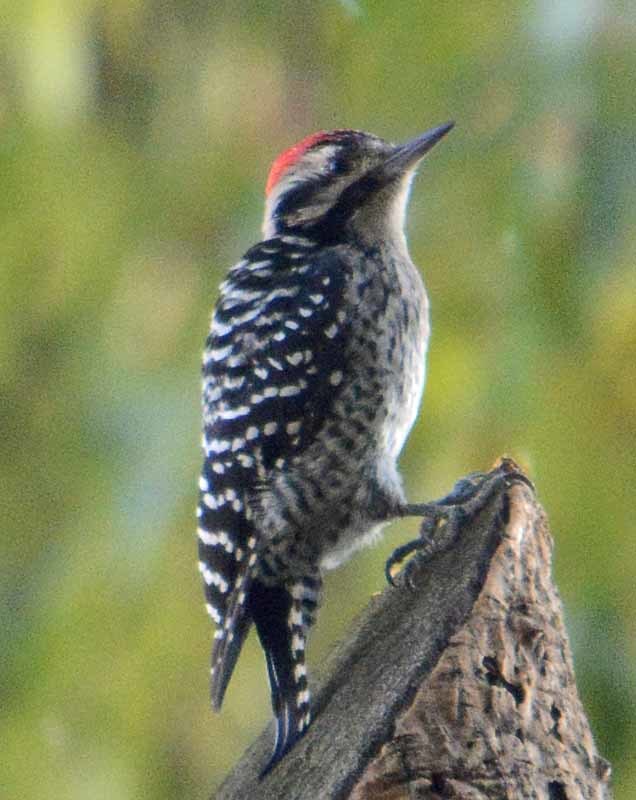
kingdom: Animalia
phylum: Chordata
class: Aves
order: Piciformes
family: Picidae
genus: Dryobates
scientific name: Dryobates scalaris
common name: Ladder-backed woodpecker
